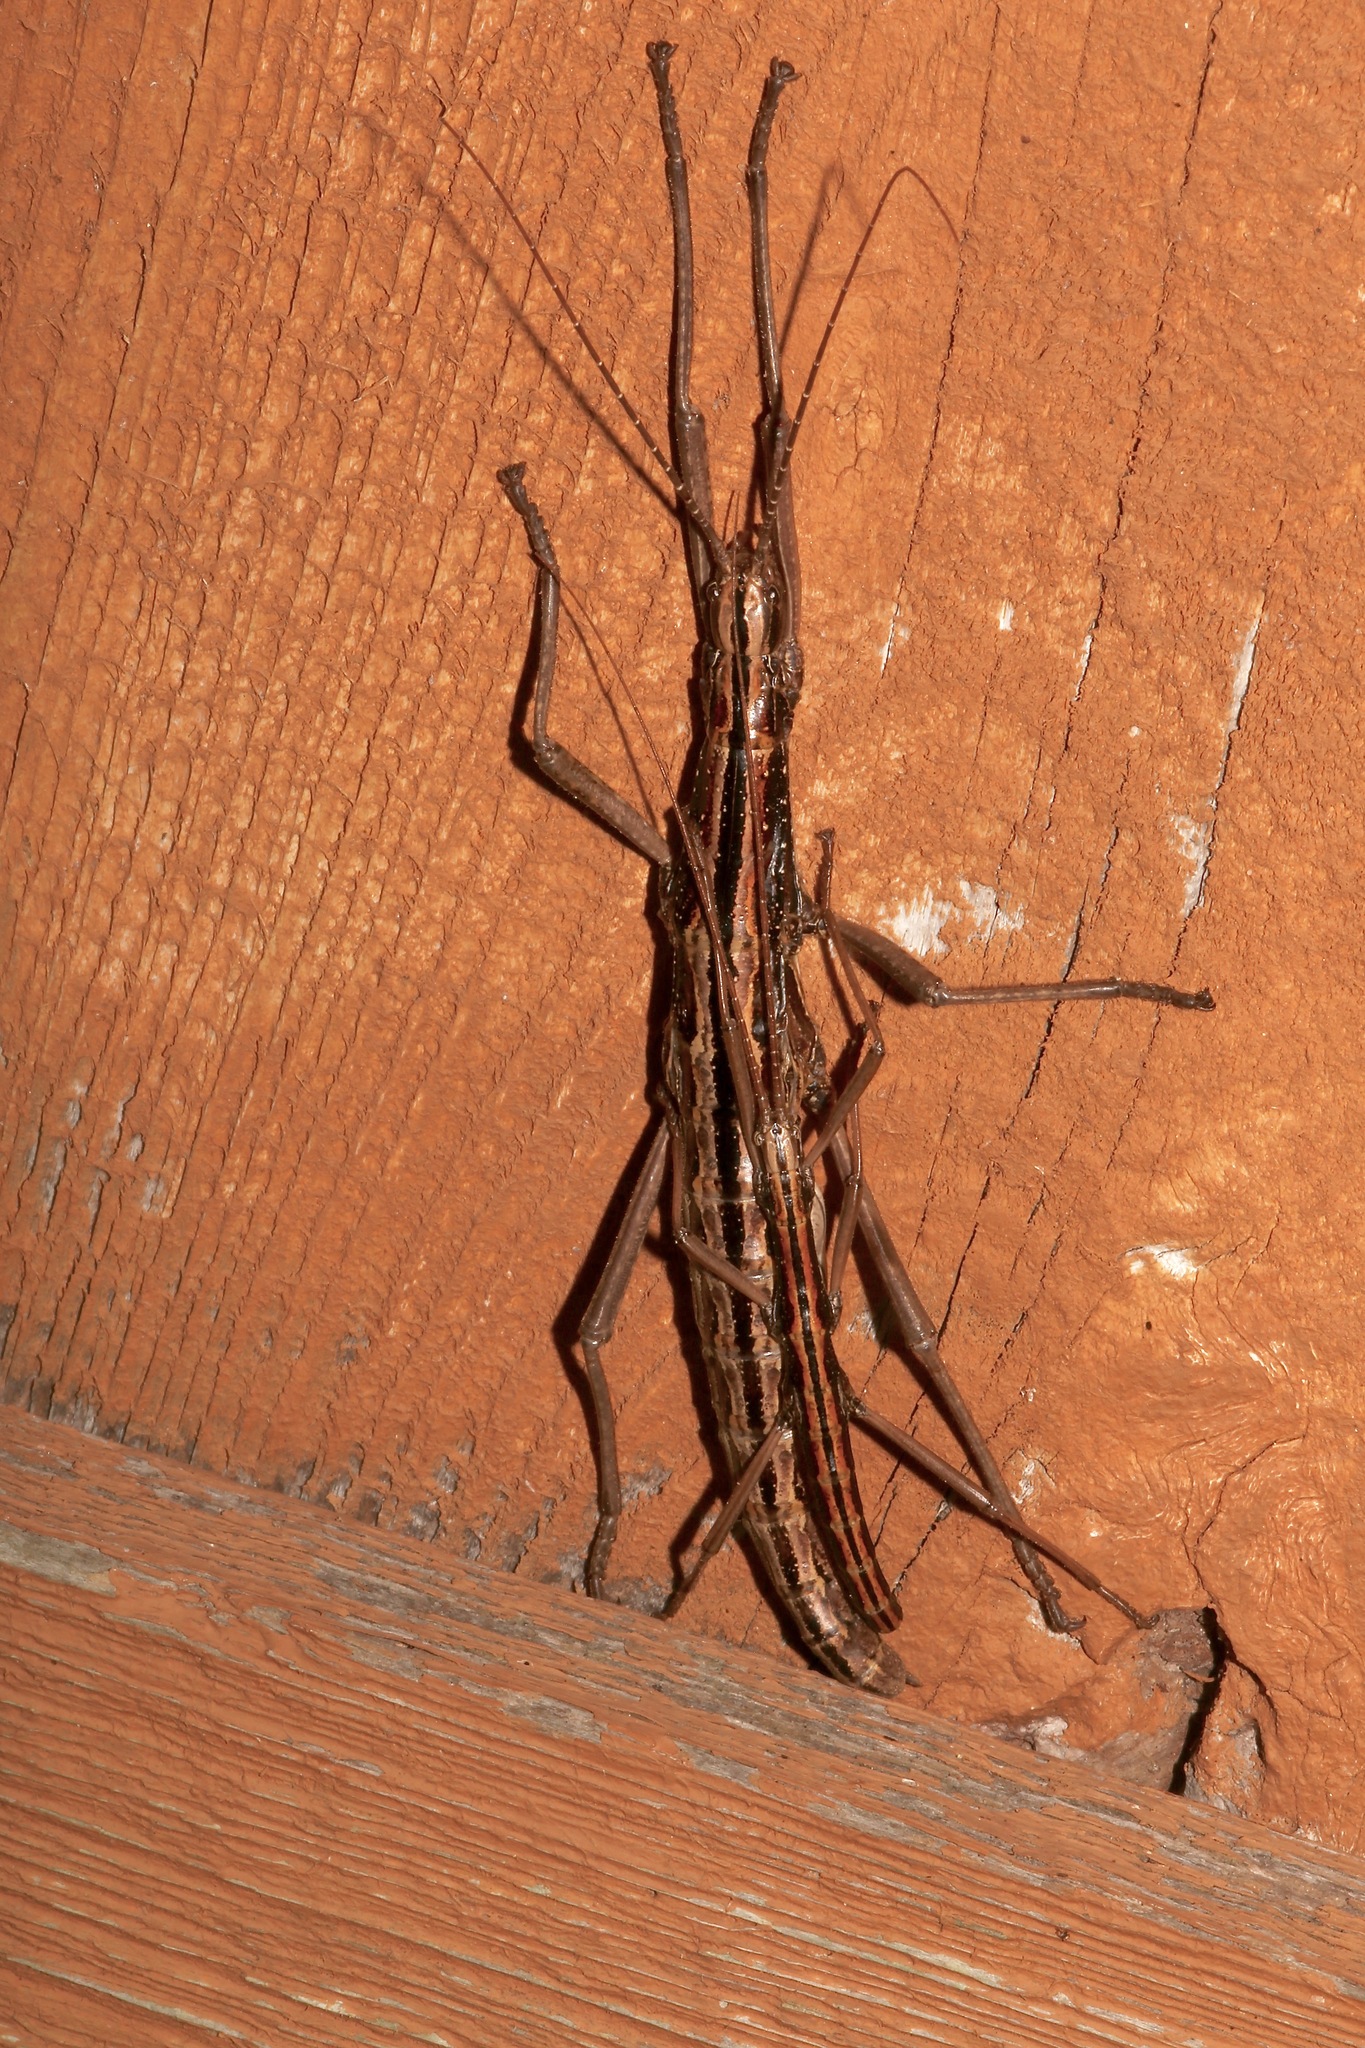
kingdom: Animalia
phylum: Arthropoda
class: Insecta
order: Phasmida
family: Pseudophasmatidae
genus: Anisomorpha
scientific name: Anisomorpha buprestoides
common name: Florida stick insect
